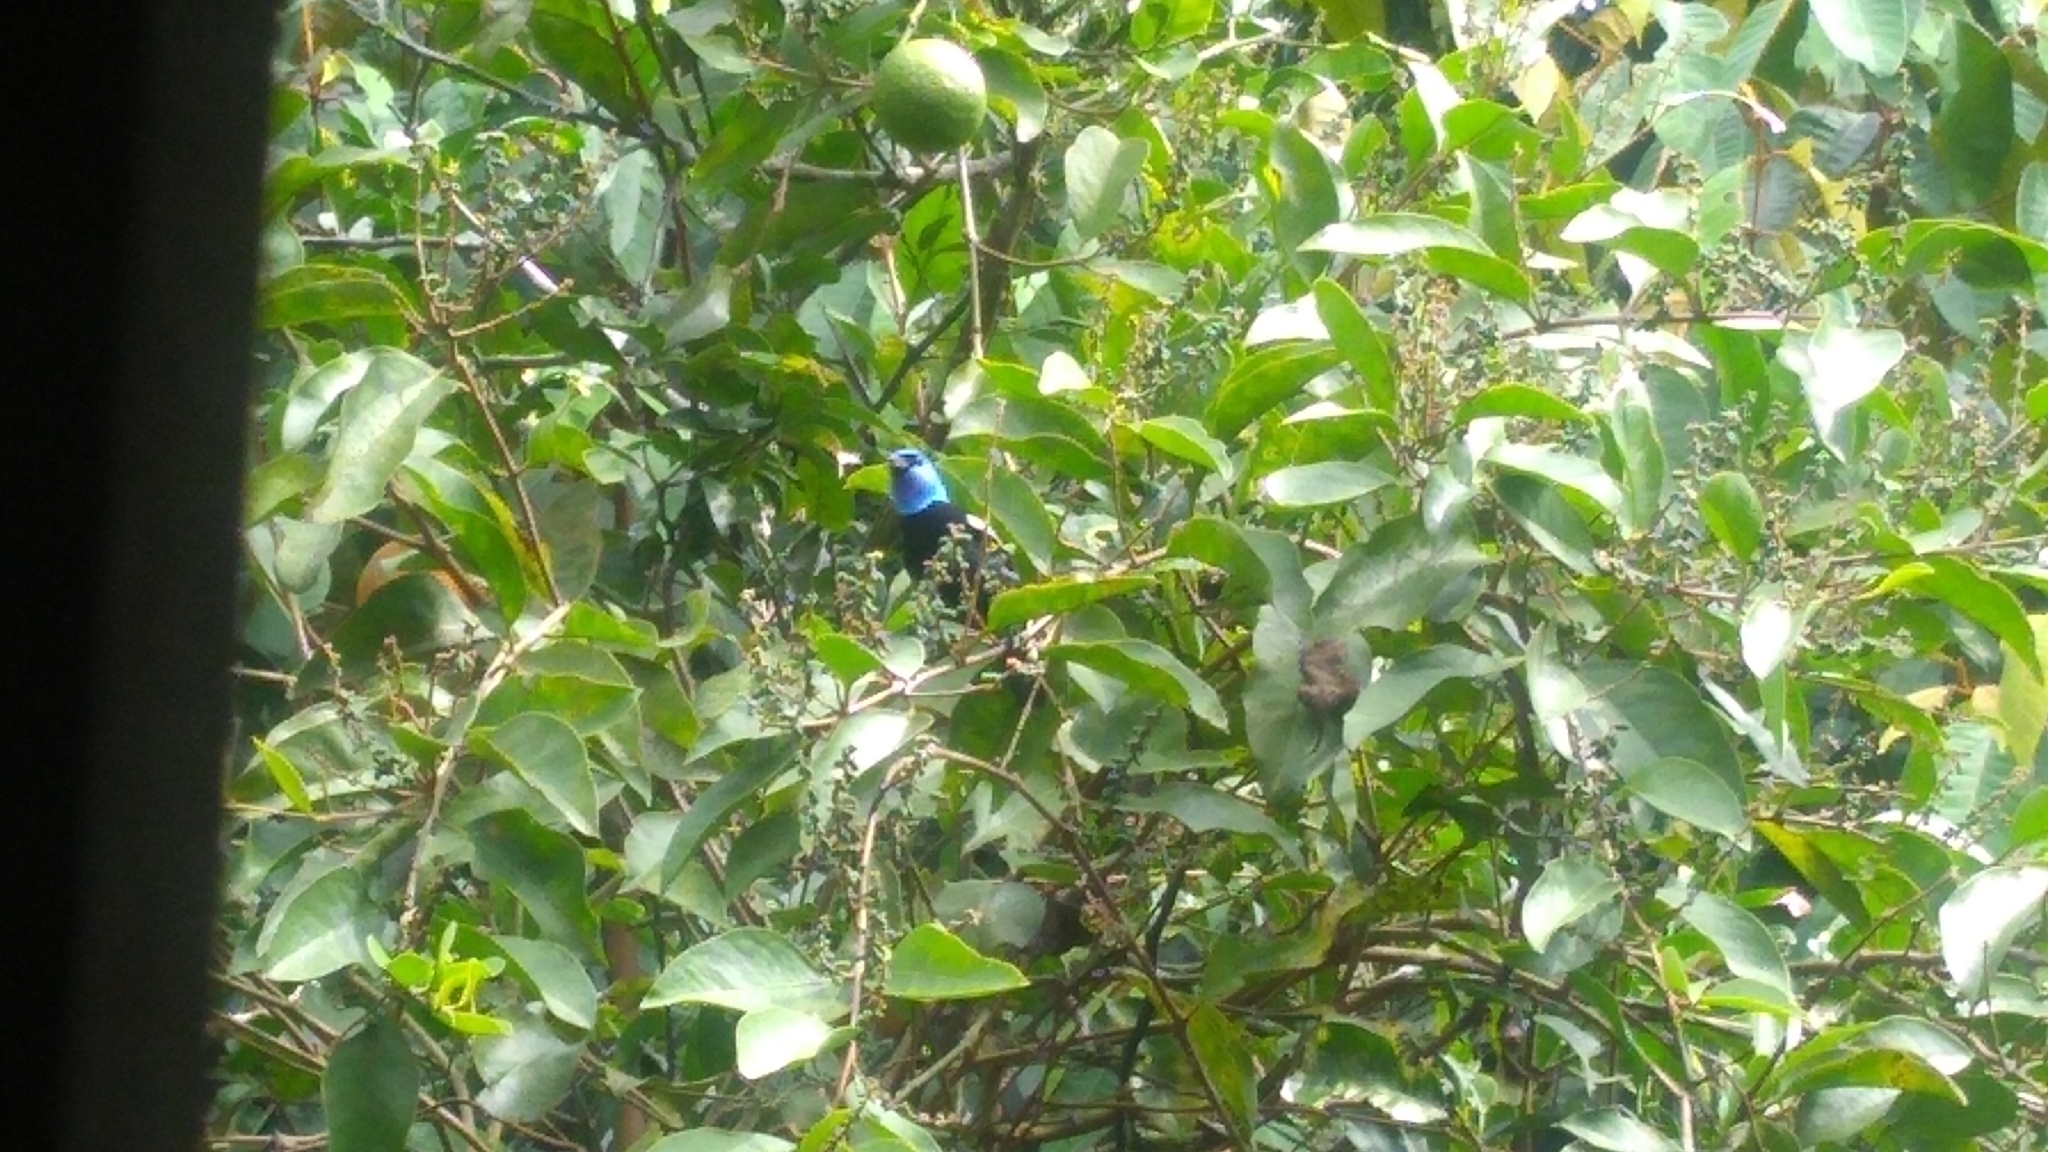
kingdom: Animalia
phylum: Chordata
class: Aves
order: Passeriformes
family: Thraupidae
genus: Stilpnia
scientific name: Stilpnia cyanicollis
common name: Blue-necked tanager
